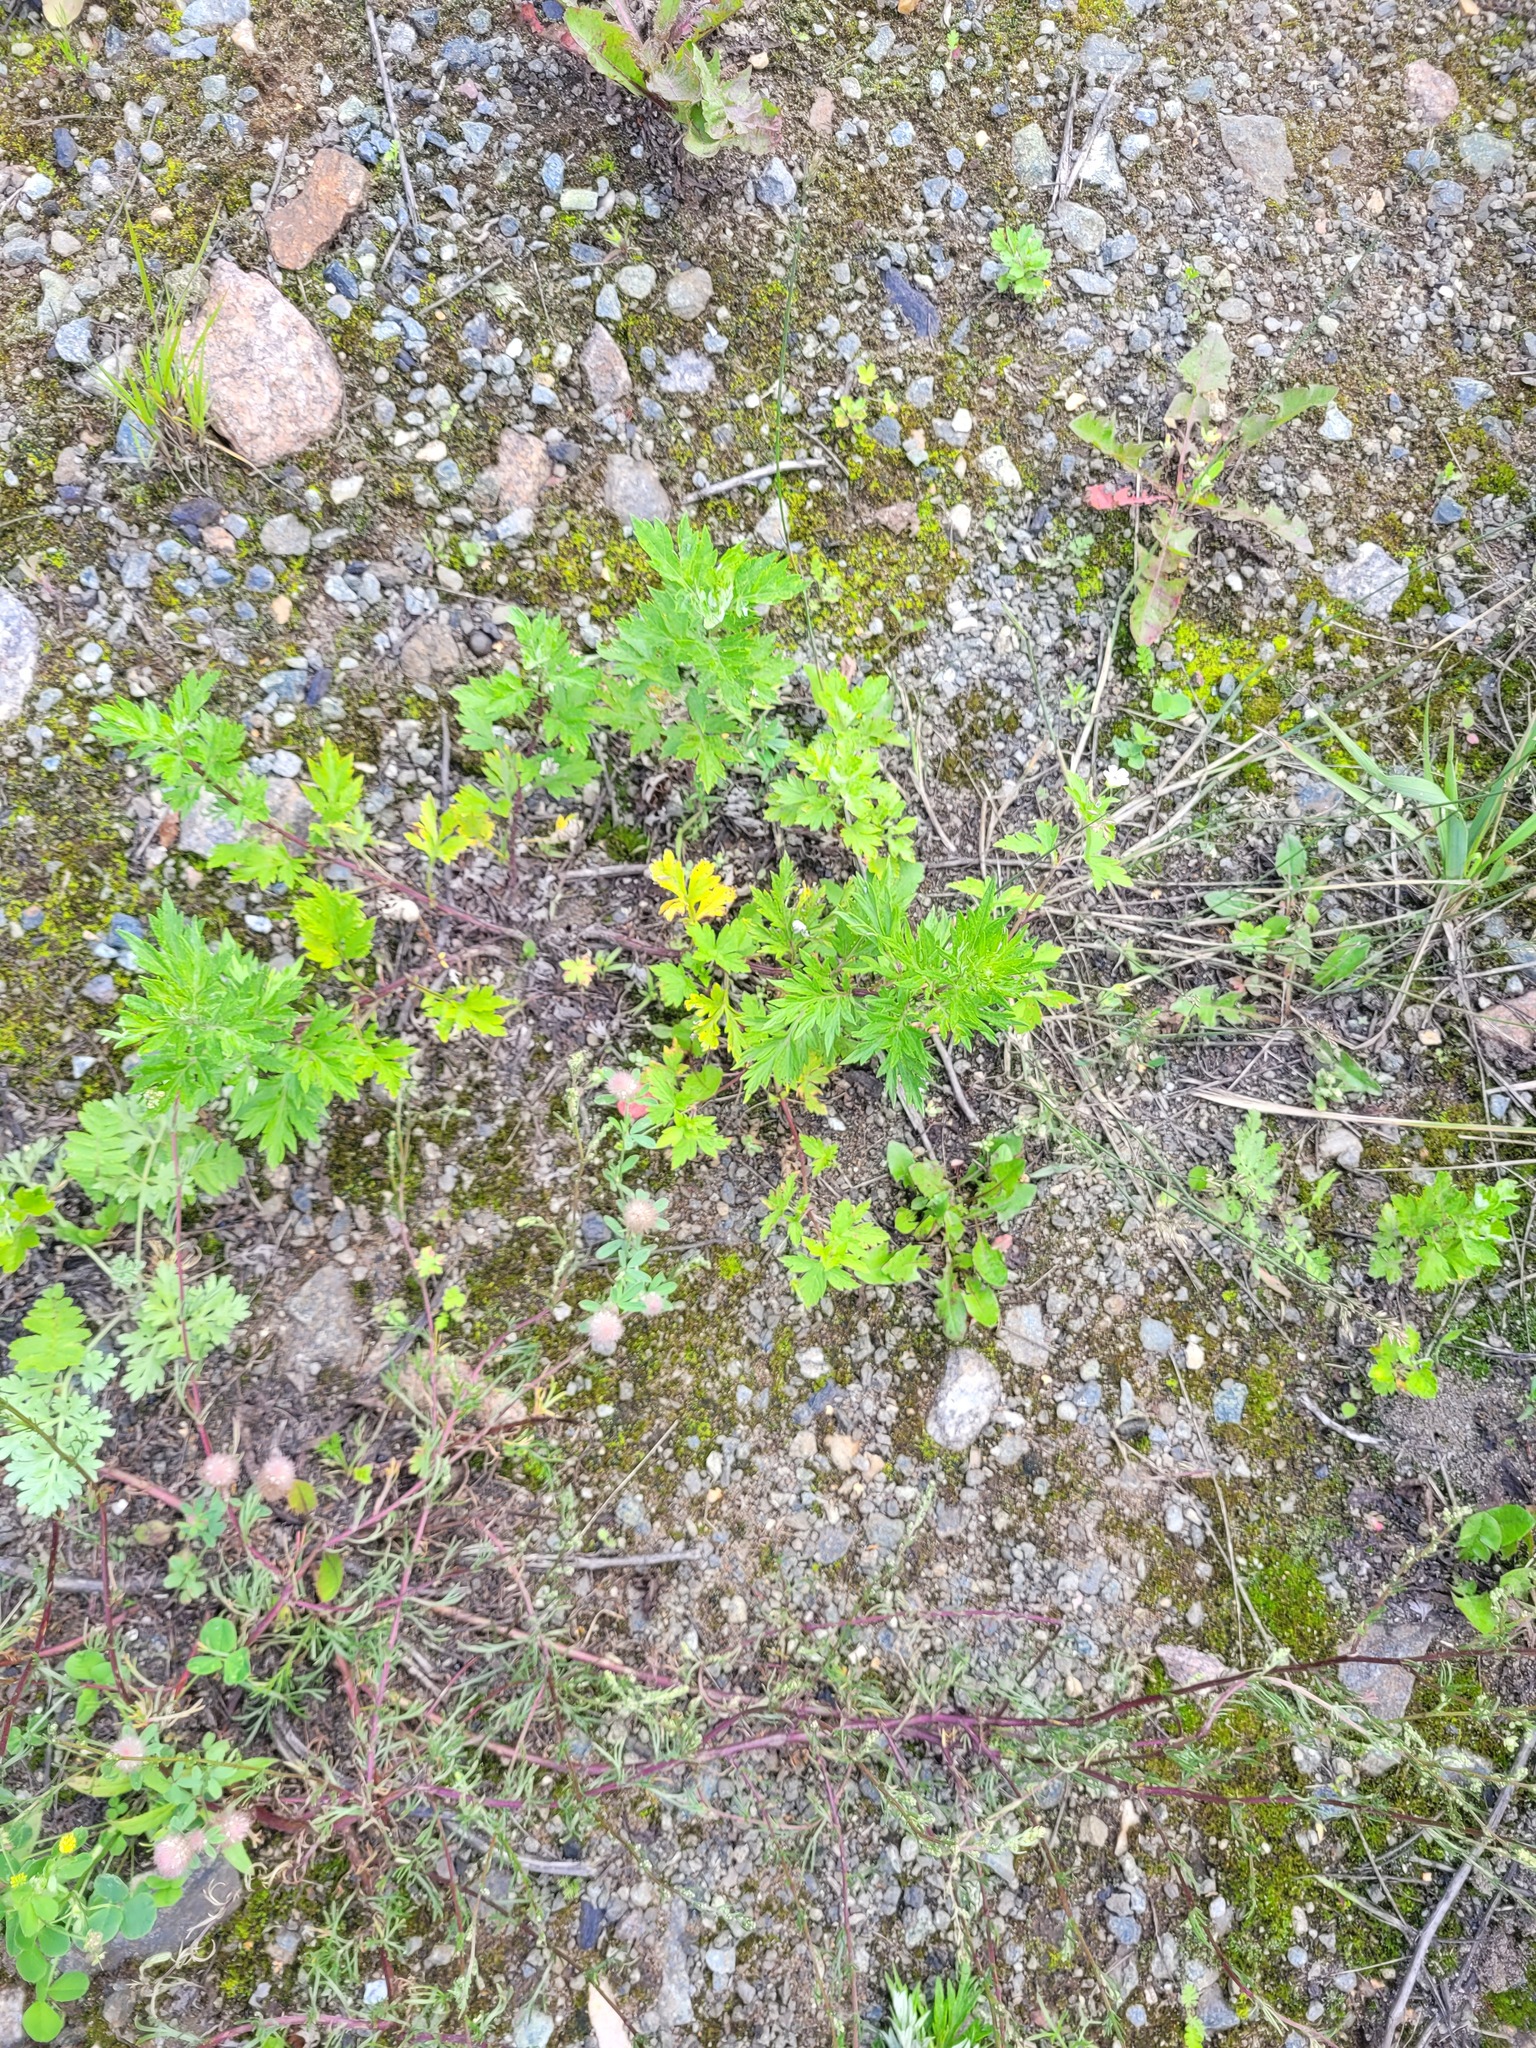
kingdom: Plantae
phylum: Tracheophyta
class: Magnoliopsida
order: Geraniales
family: Geraniaceae
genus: Geranium
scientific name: Geranium sibiricum
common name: Siberian crane's-bill
